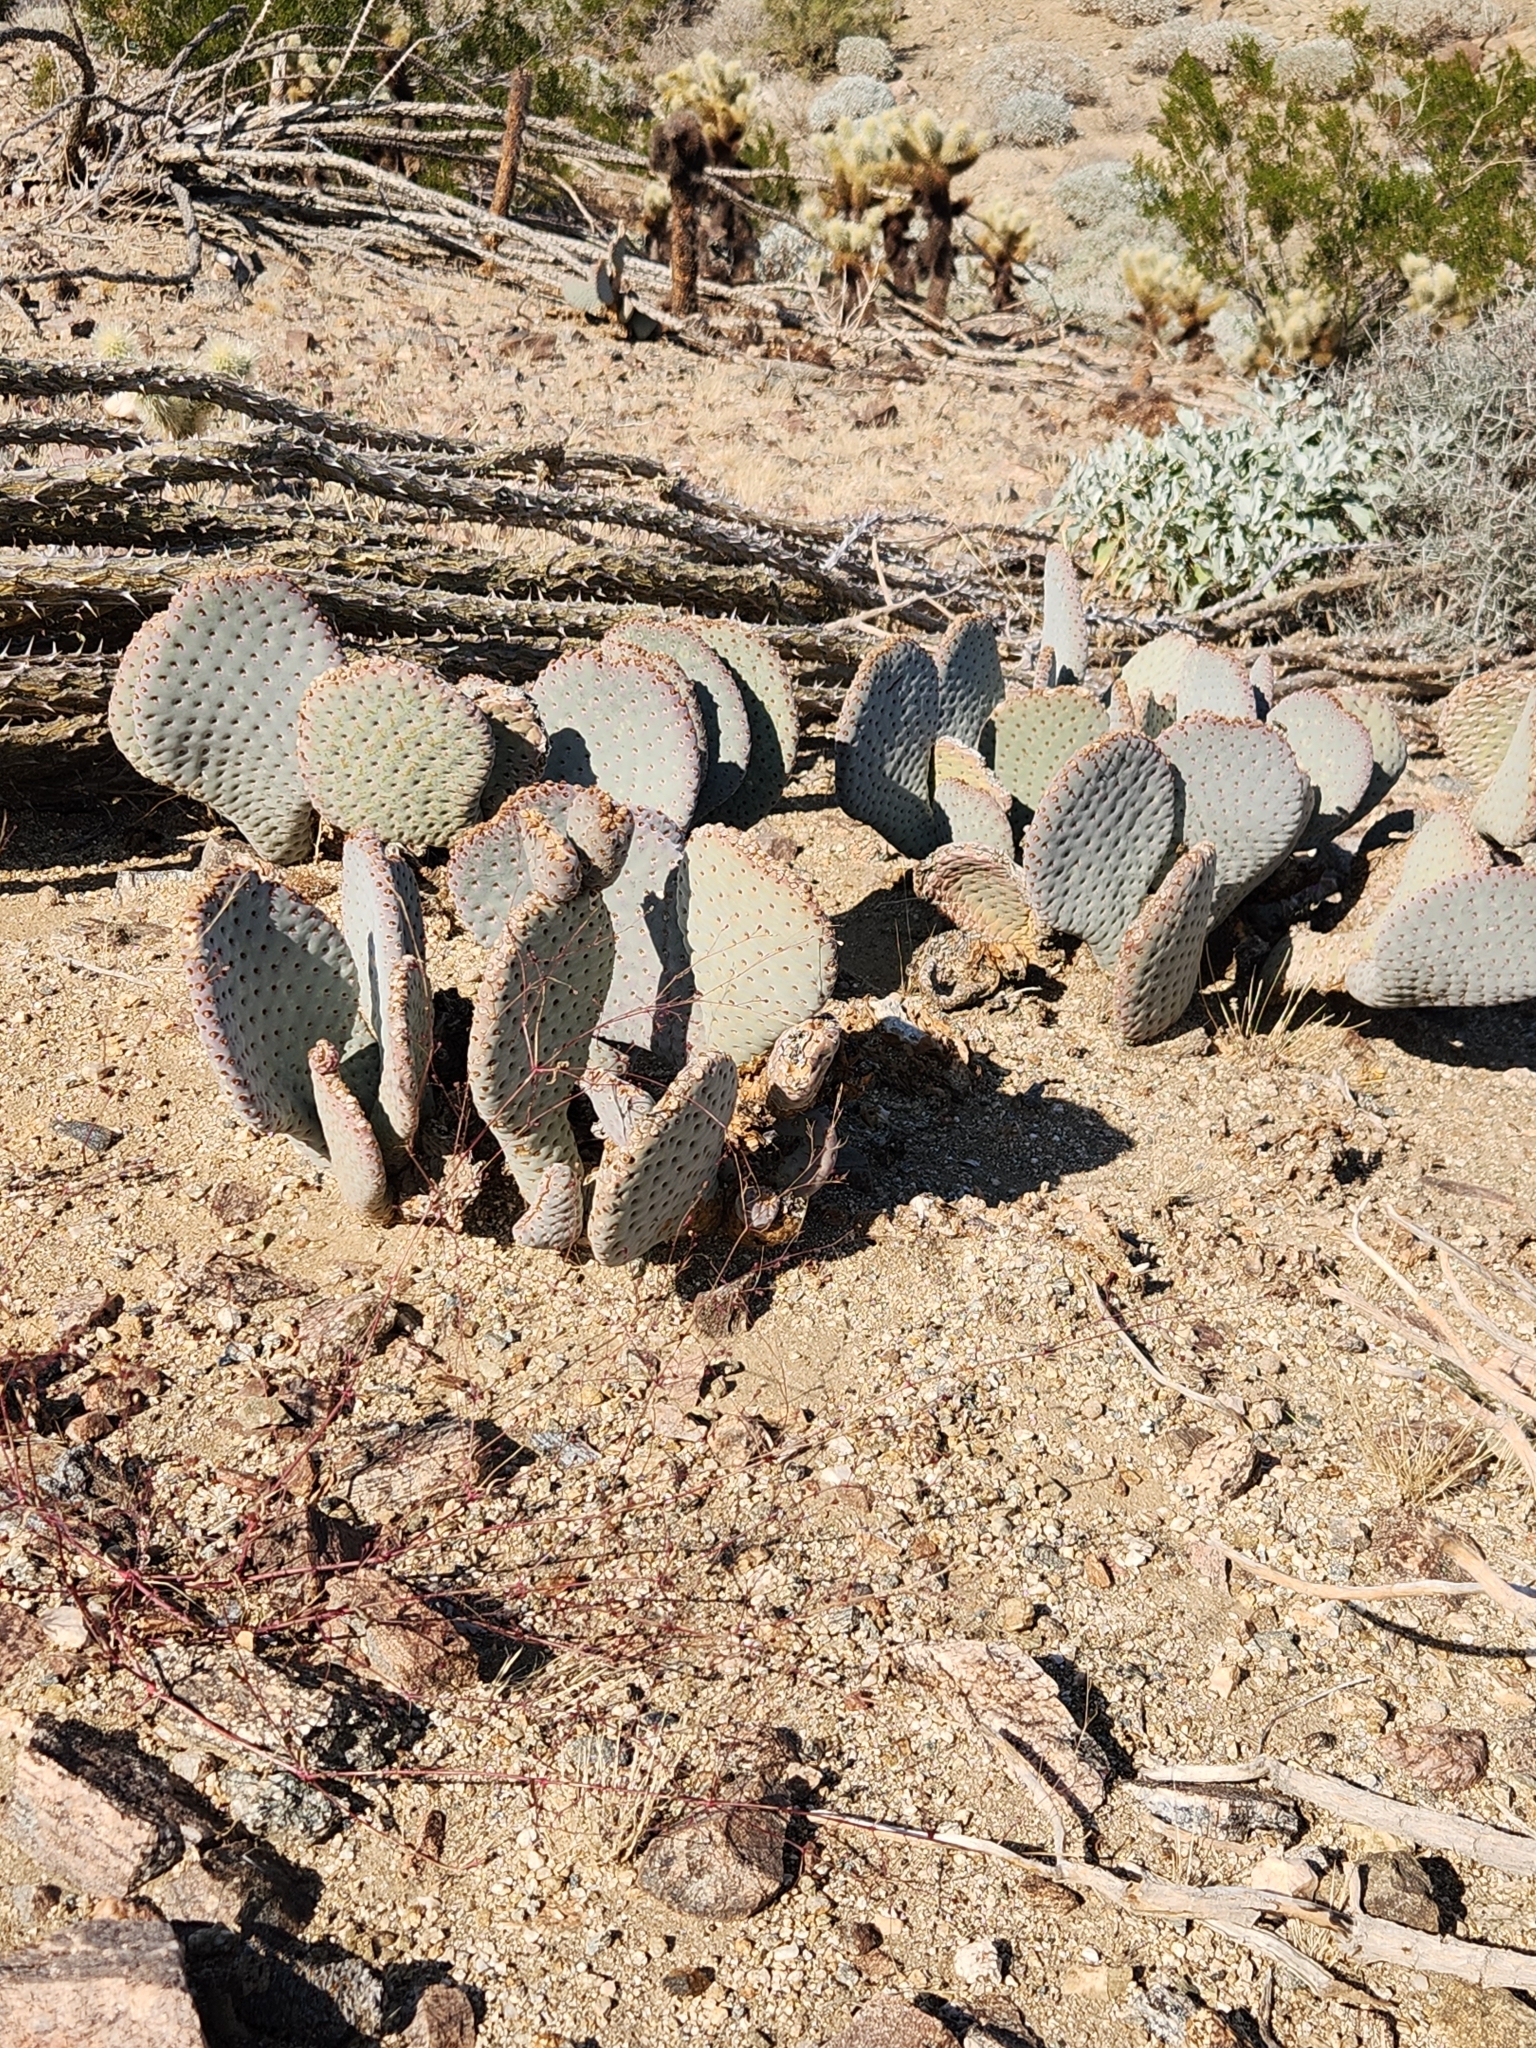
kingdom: Plantae
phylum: Tracheophyta
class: Magnoliopsida
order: Caryophyllales
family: Cactaceae
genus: Opuntia
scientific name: Opuntia basilaris
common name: Beavertail prickly-pear
